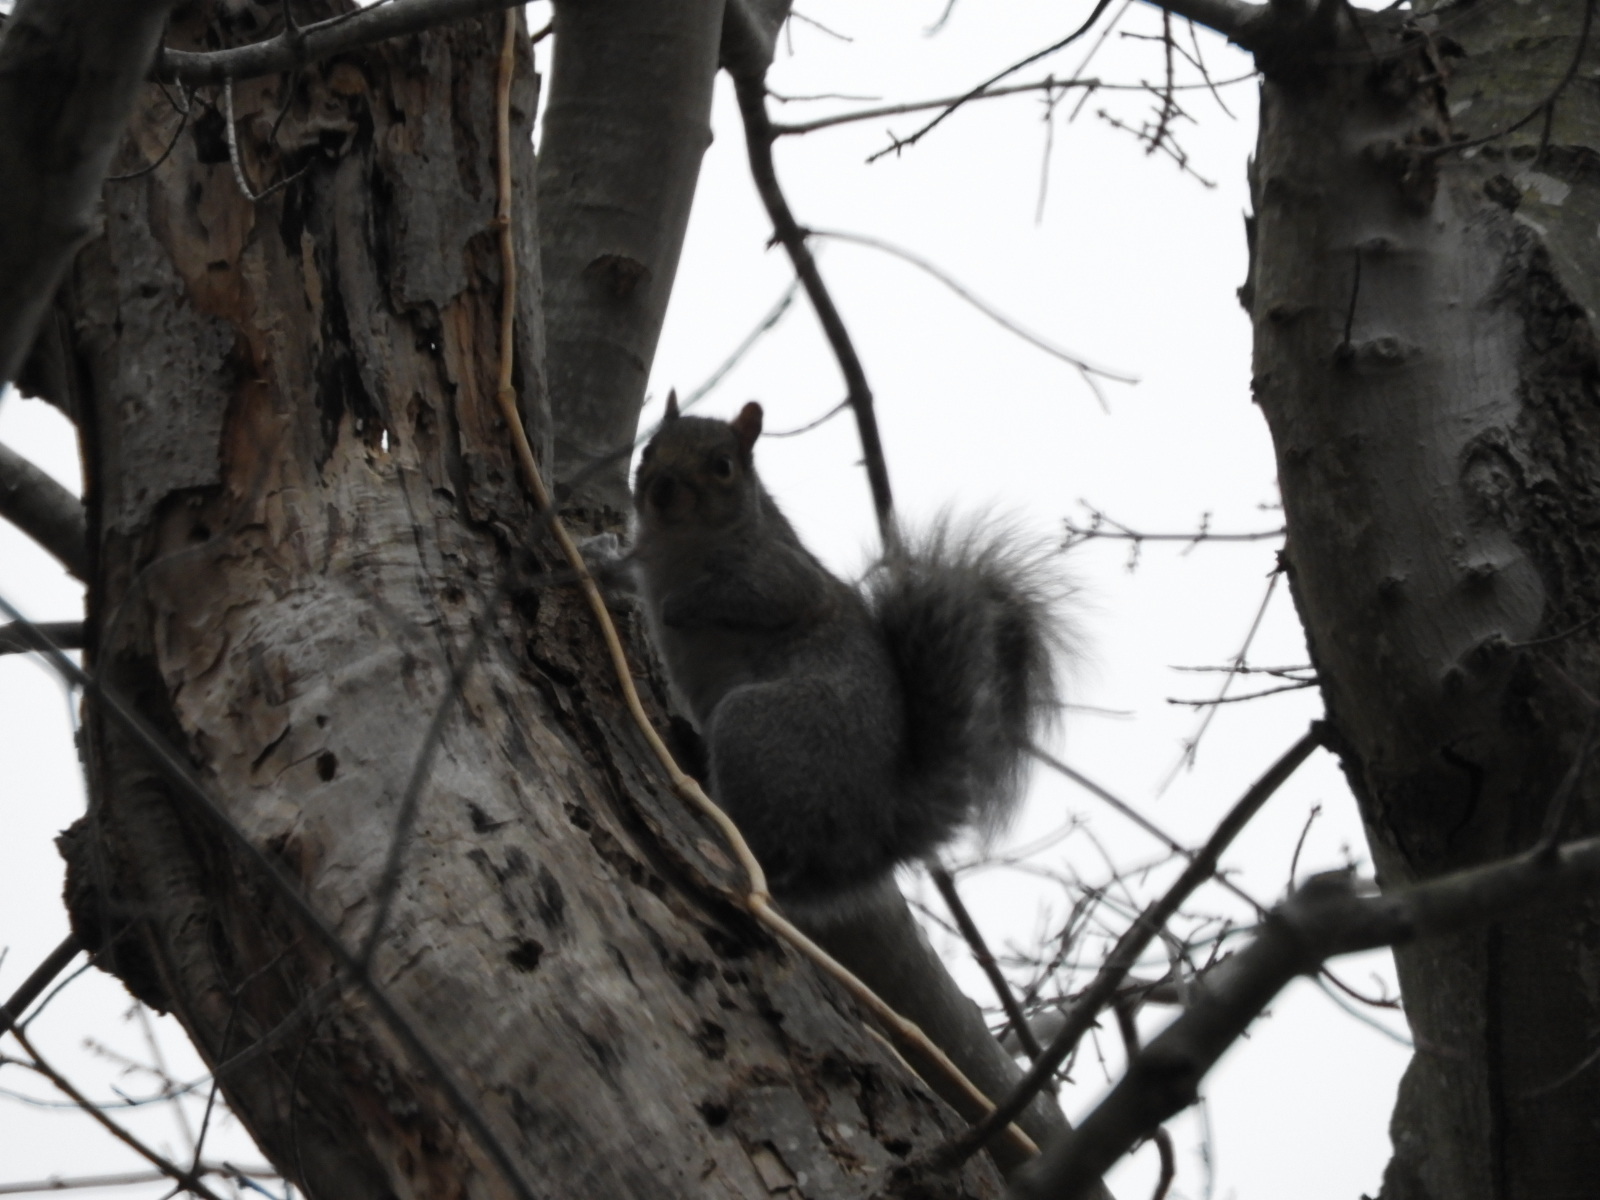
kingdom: Animalia
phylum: Chordata
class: Mammalia
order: Rodentia
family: Sciuridae
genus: Sciurus
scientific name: Sciurus carolinensis
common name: Eastern gray squirrel
